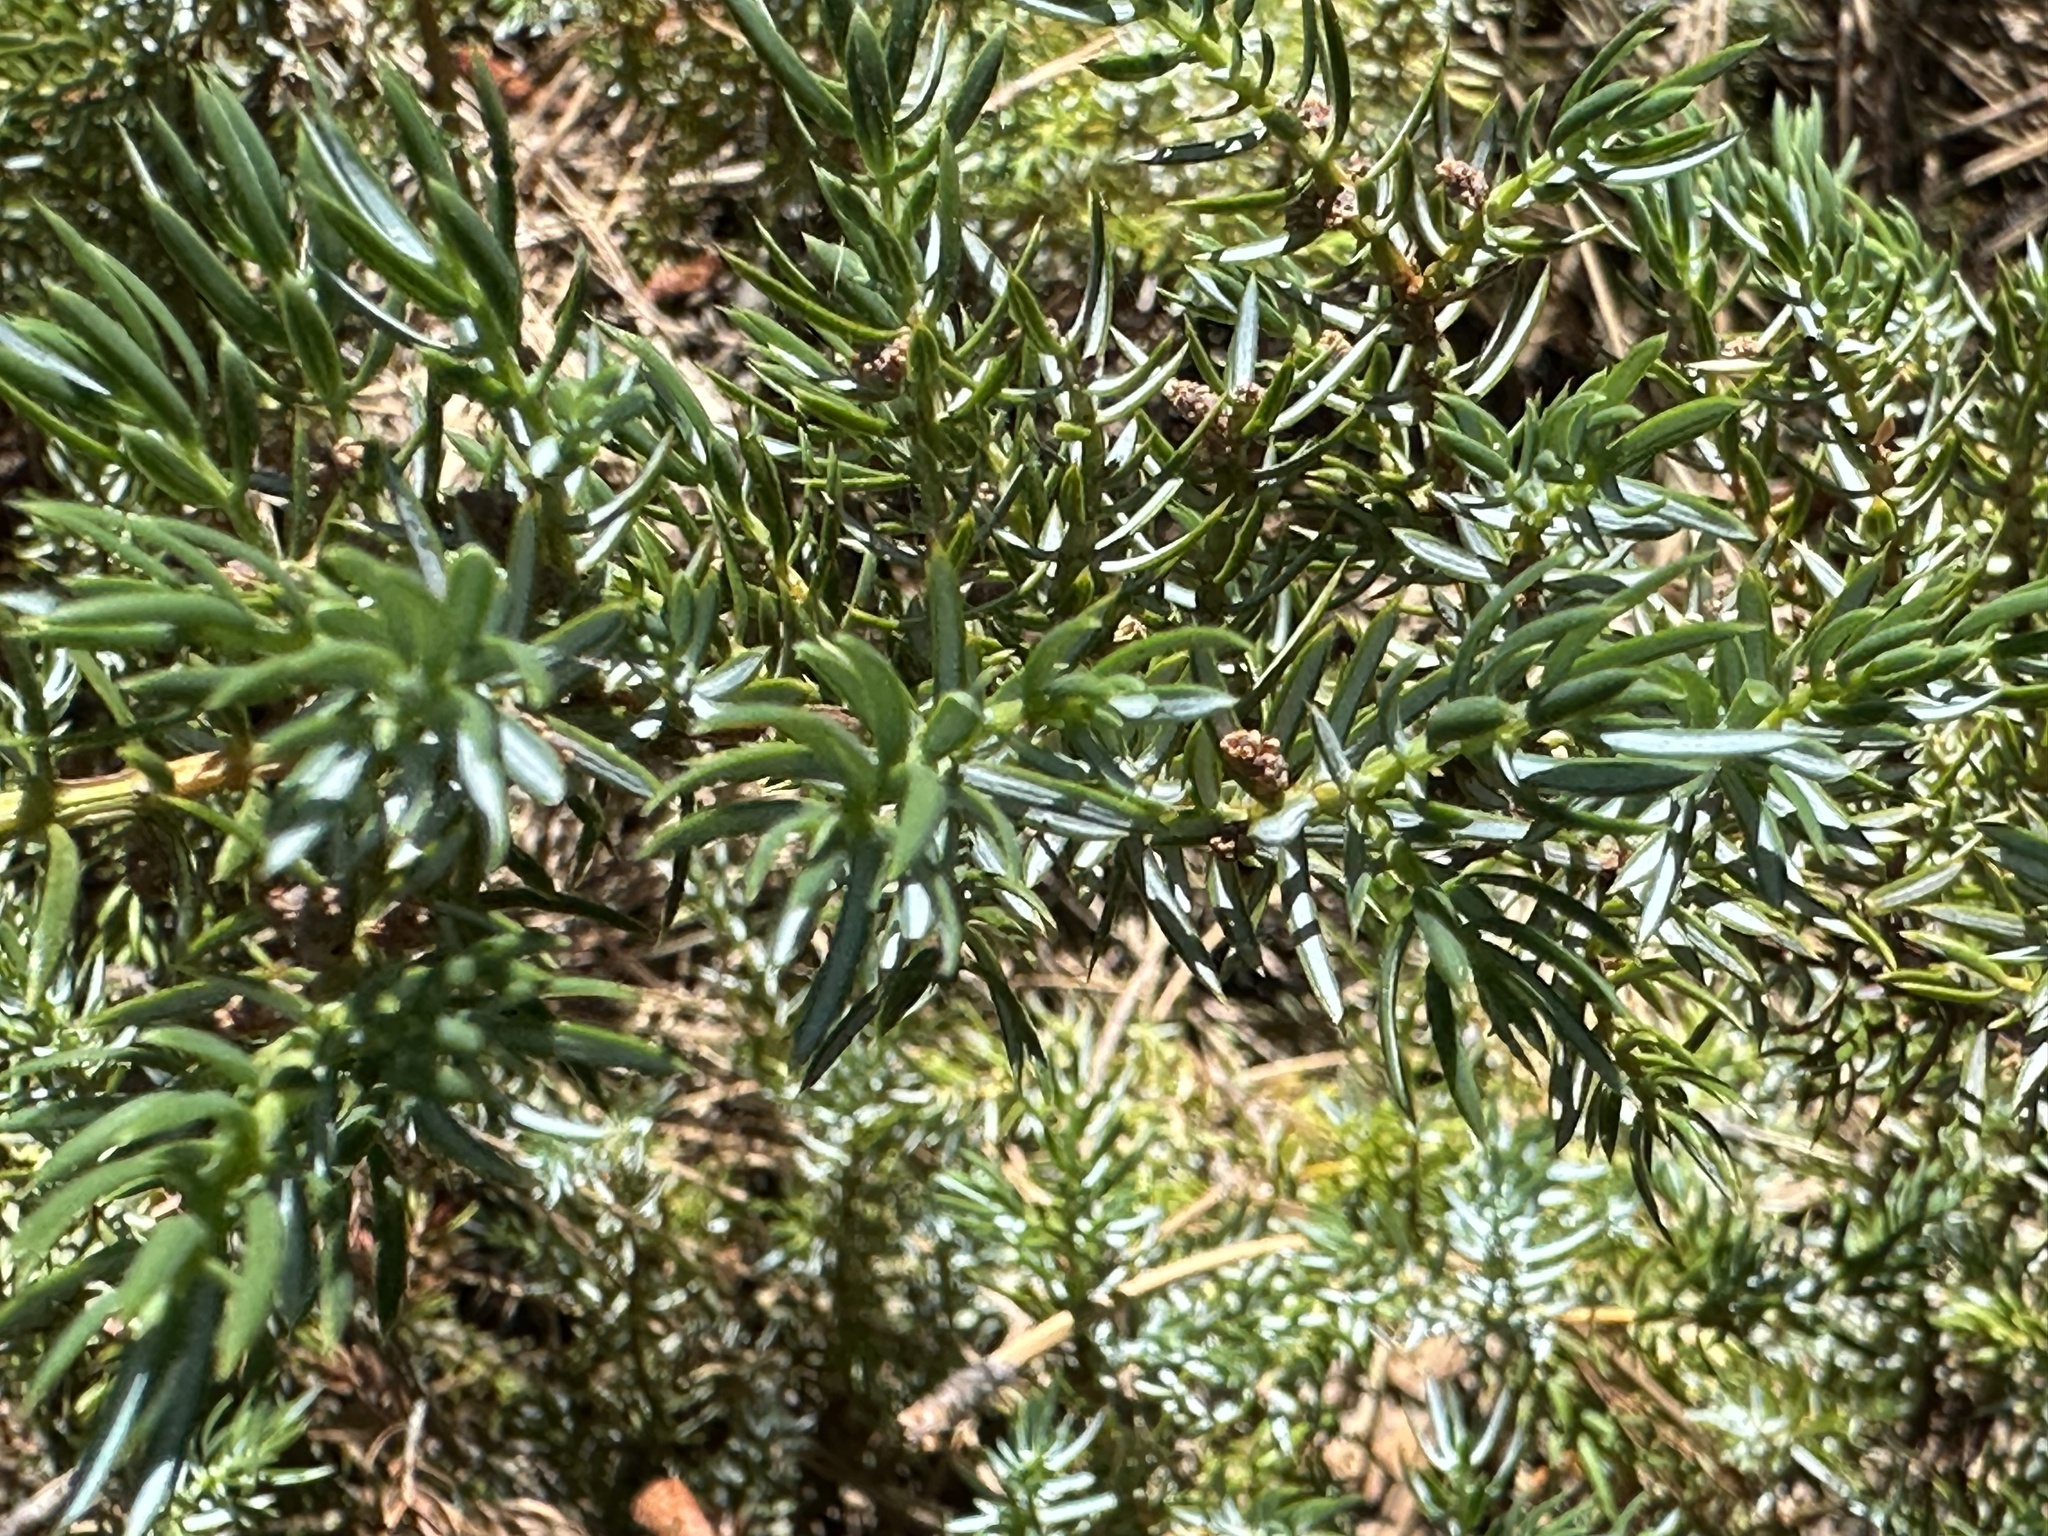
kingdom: Plantae
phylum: Tracheophyta
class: Pinopsida
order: Pinales
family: Cupressaceae
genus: Juniperus
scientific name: Juniperus communis
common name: Common juniper
